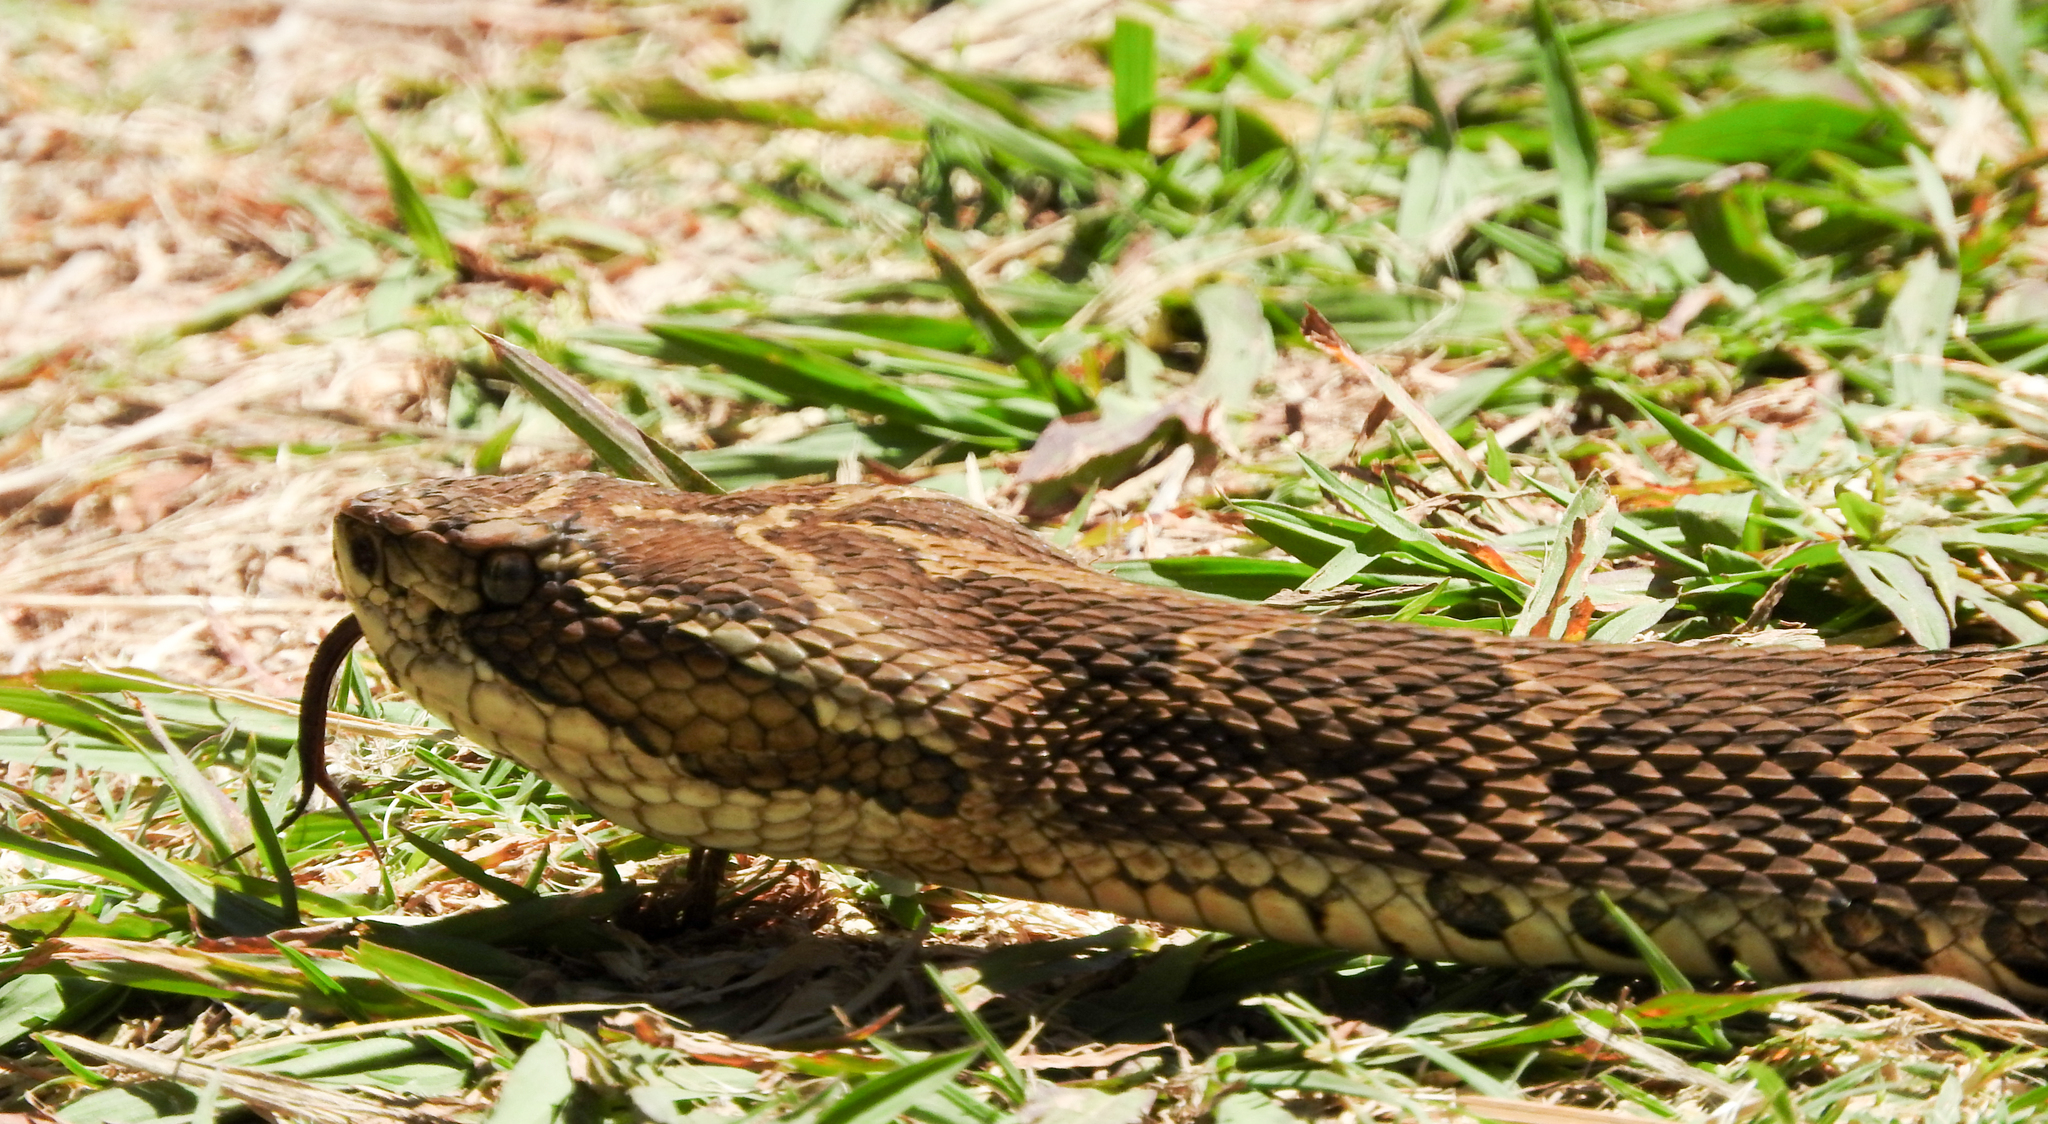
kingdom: Animalia
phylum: Chordata
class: Squamata
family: Viperidae
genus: Bothrops
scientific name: Bothrops alternatus
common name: Urutu
